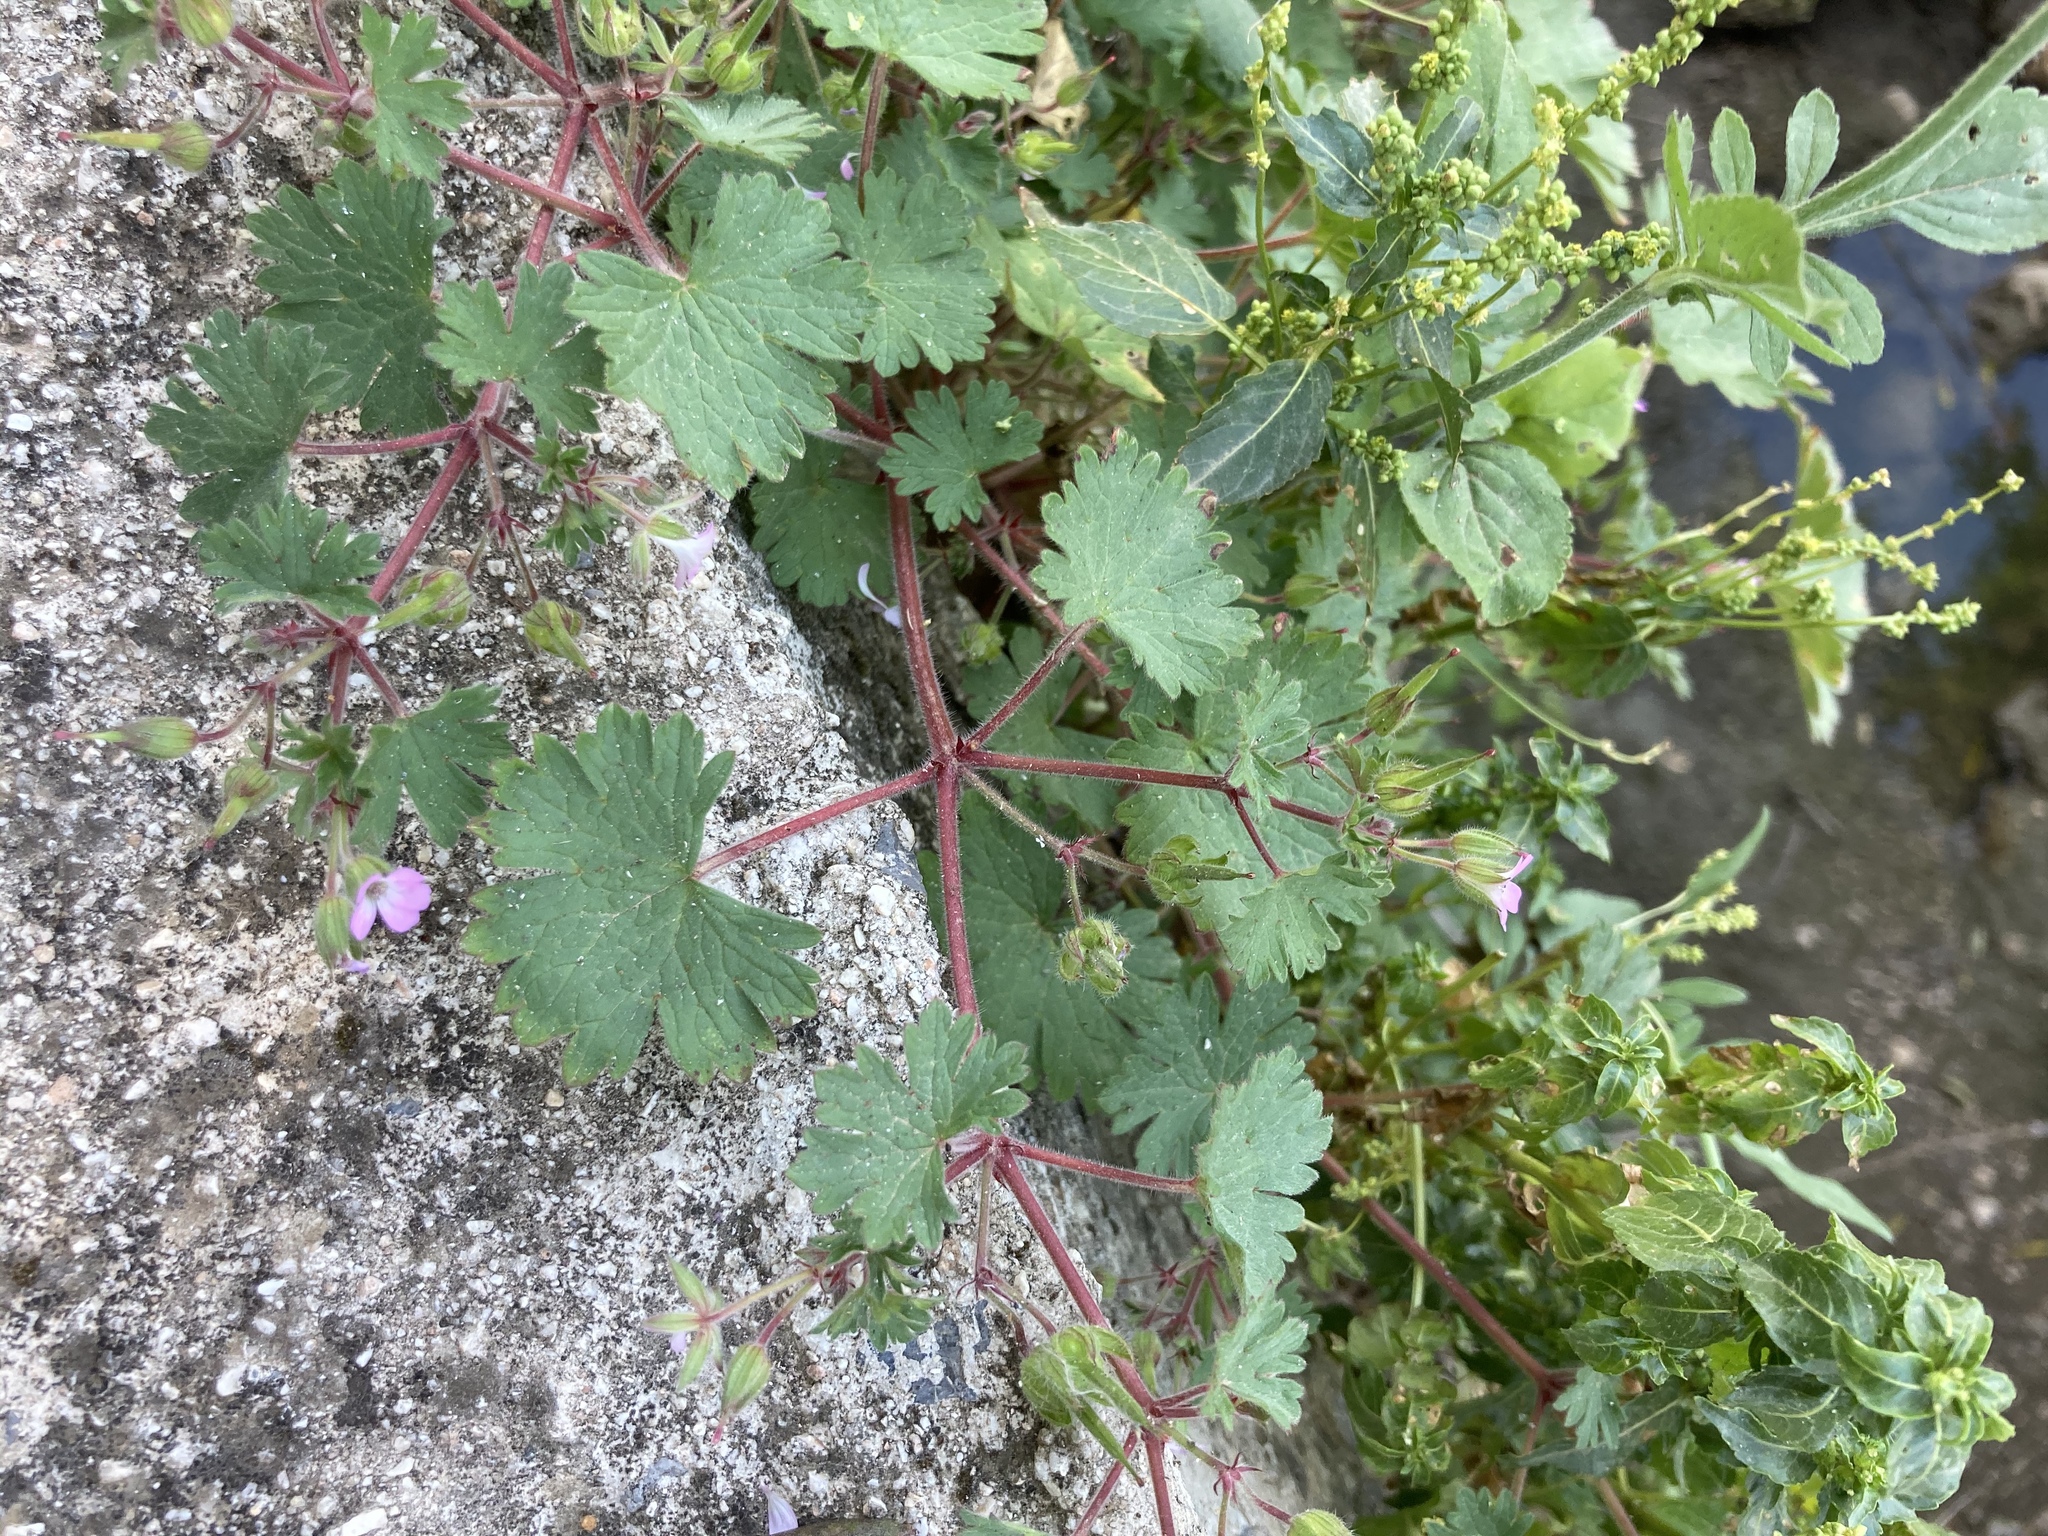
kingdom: Plantae
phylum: Tracheophyta
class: Magnoliopsida
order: Malpighiales
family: Euphorbiaceae
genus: Mercurialis
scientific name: Mercurialis annua
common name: Annual mercury
